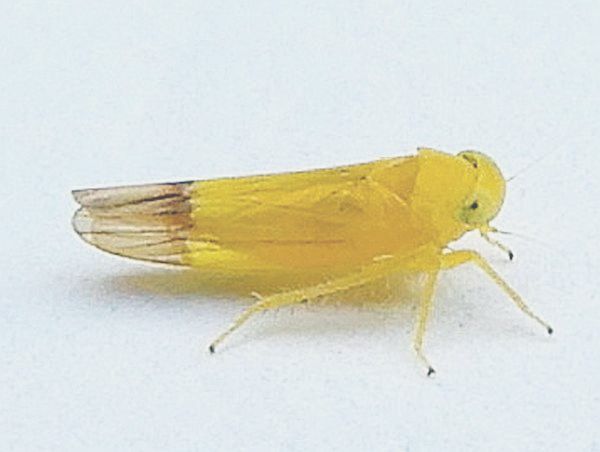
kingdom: Animalia
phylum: Arthropoda
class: Insecta
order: Hemiptera
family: Cicadellidae
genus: Alebra
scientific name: Alebra bicincta
